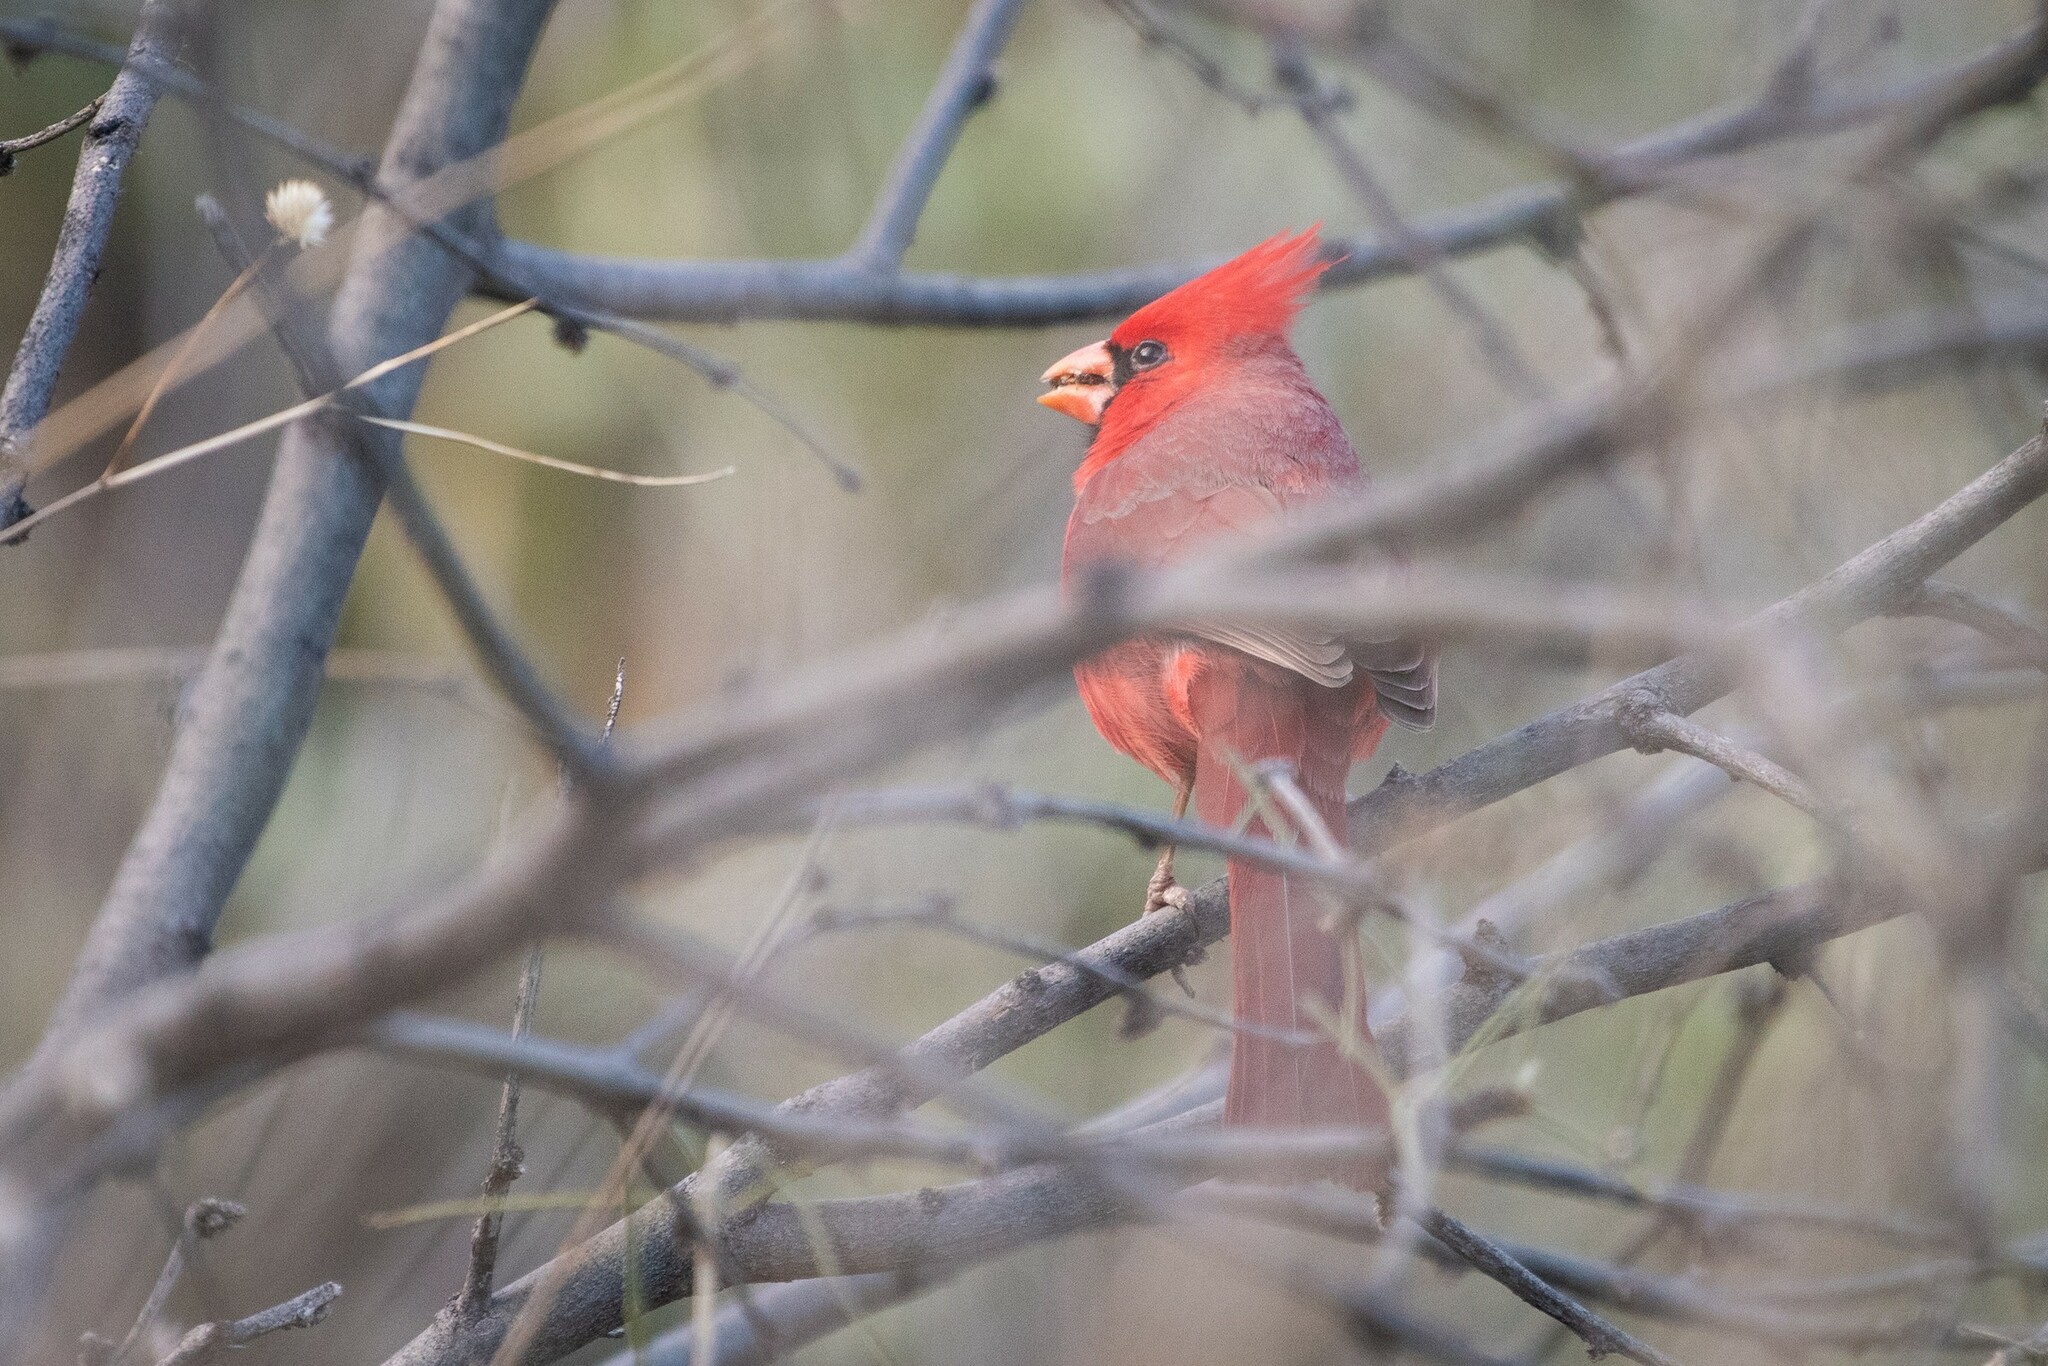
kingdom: Animalia
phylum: Chordata
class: Aves
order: Passeriformes
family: Cardinalidae
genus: Cardinalis
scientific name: Cardinalis cardinalis
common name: Northern cardinal
